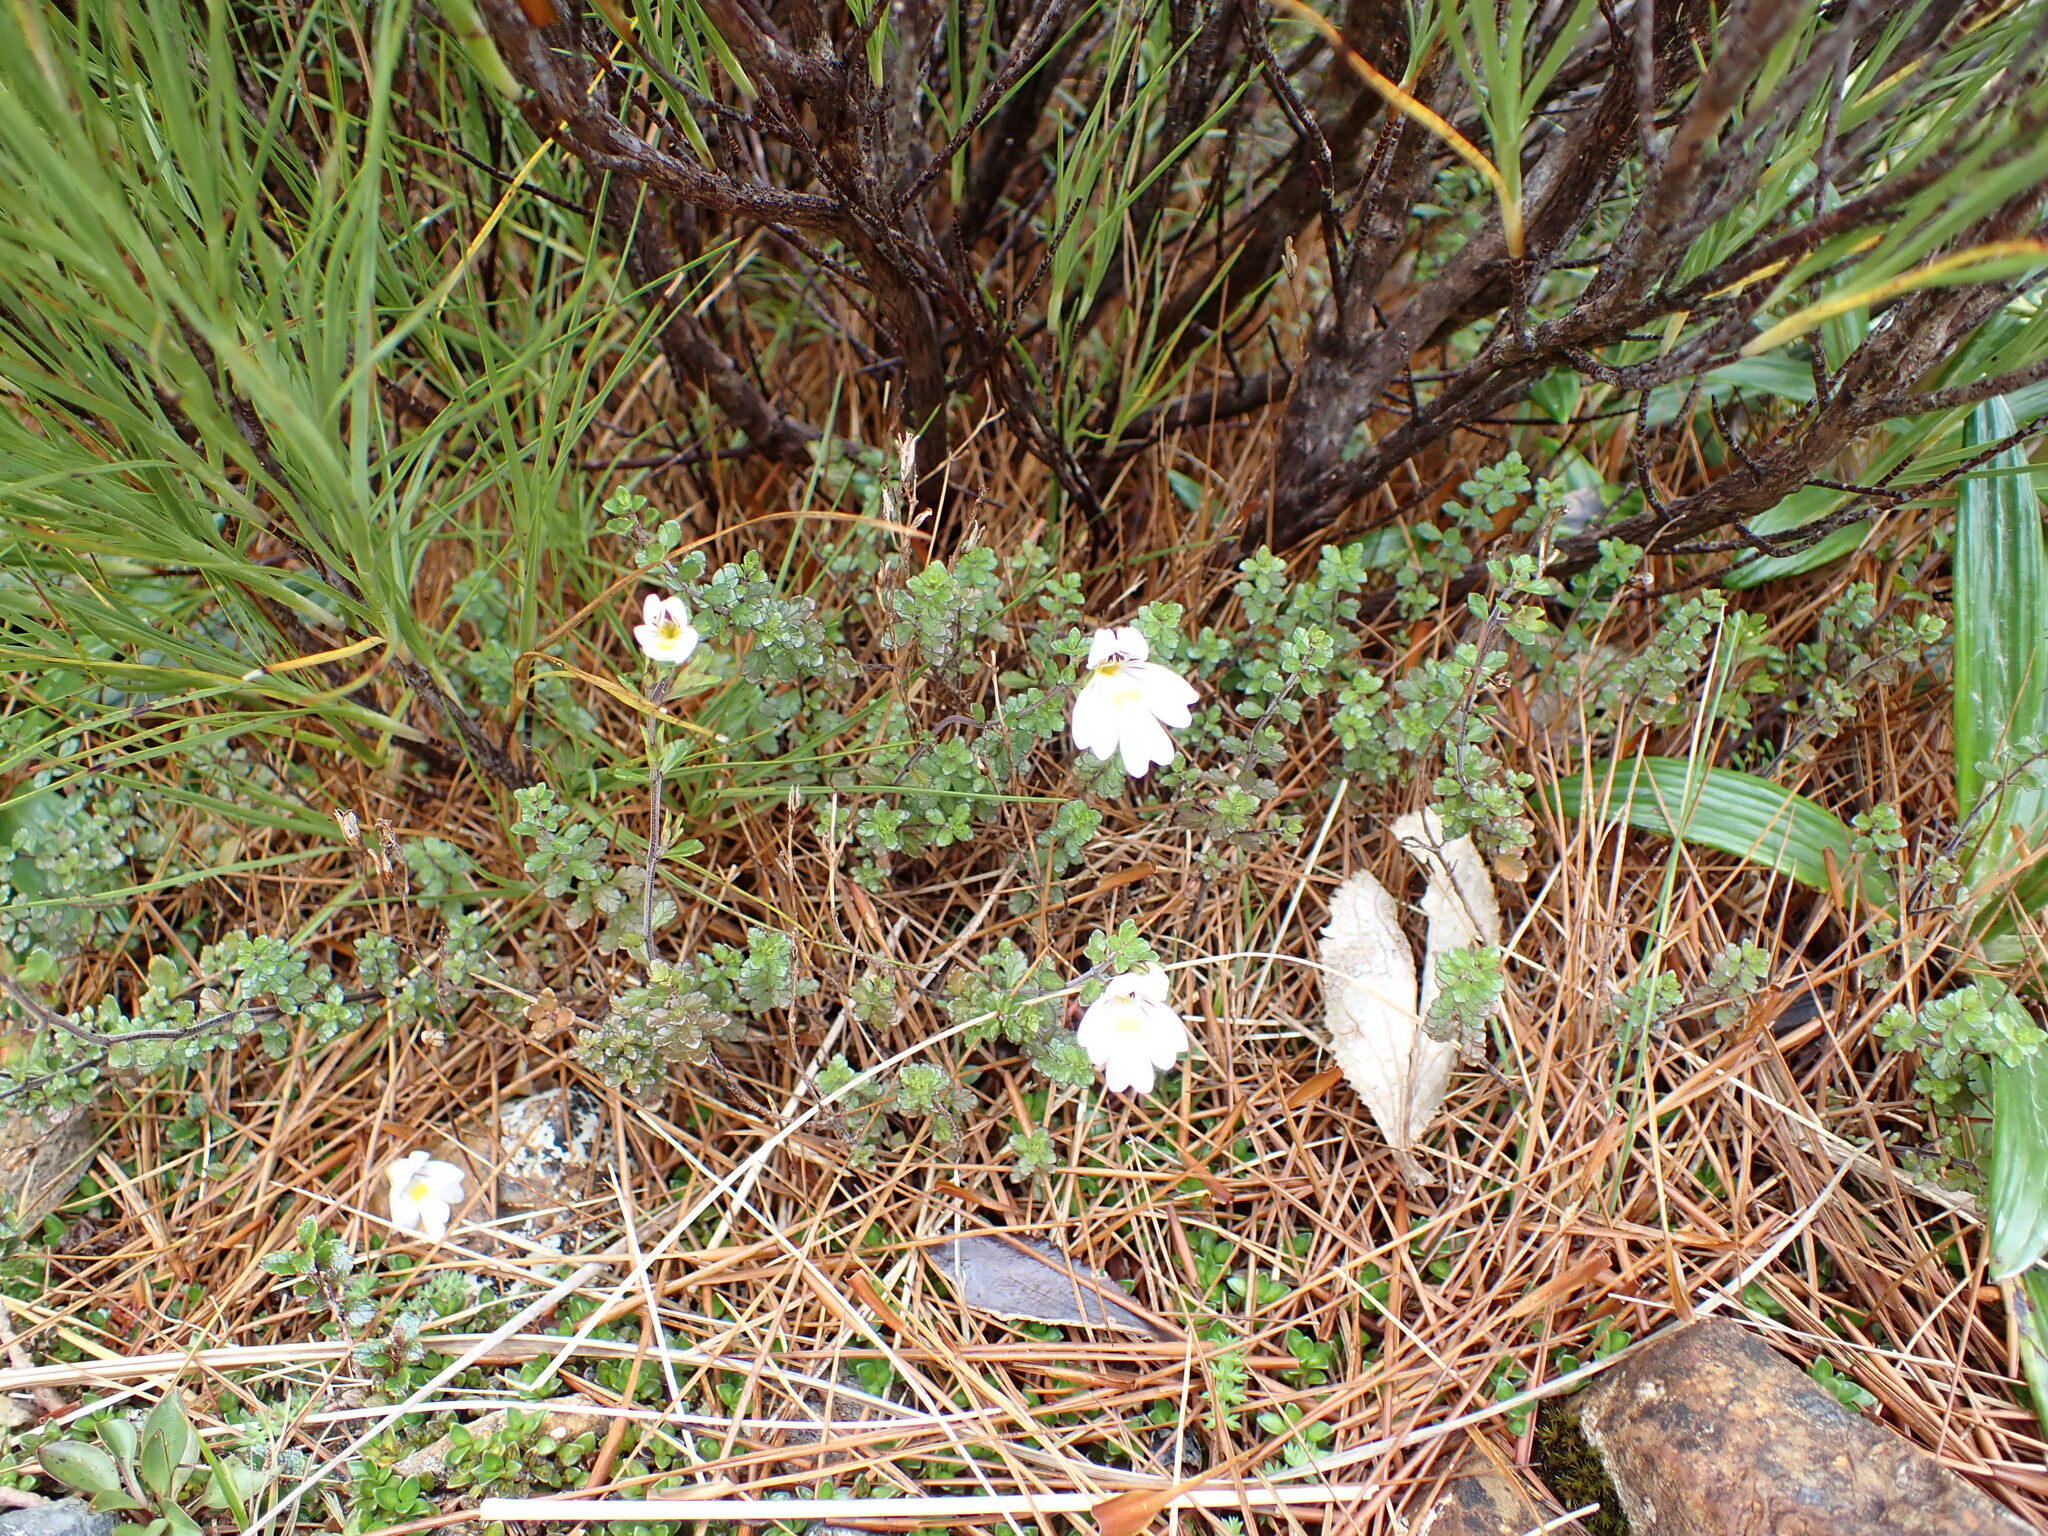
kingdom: Plantae
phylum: Tracheophyta
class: Magnoliopsida
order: Lamiales
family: Orobanchaceae
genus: Euphrasia
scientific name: Euphrasia cuneata
